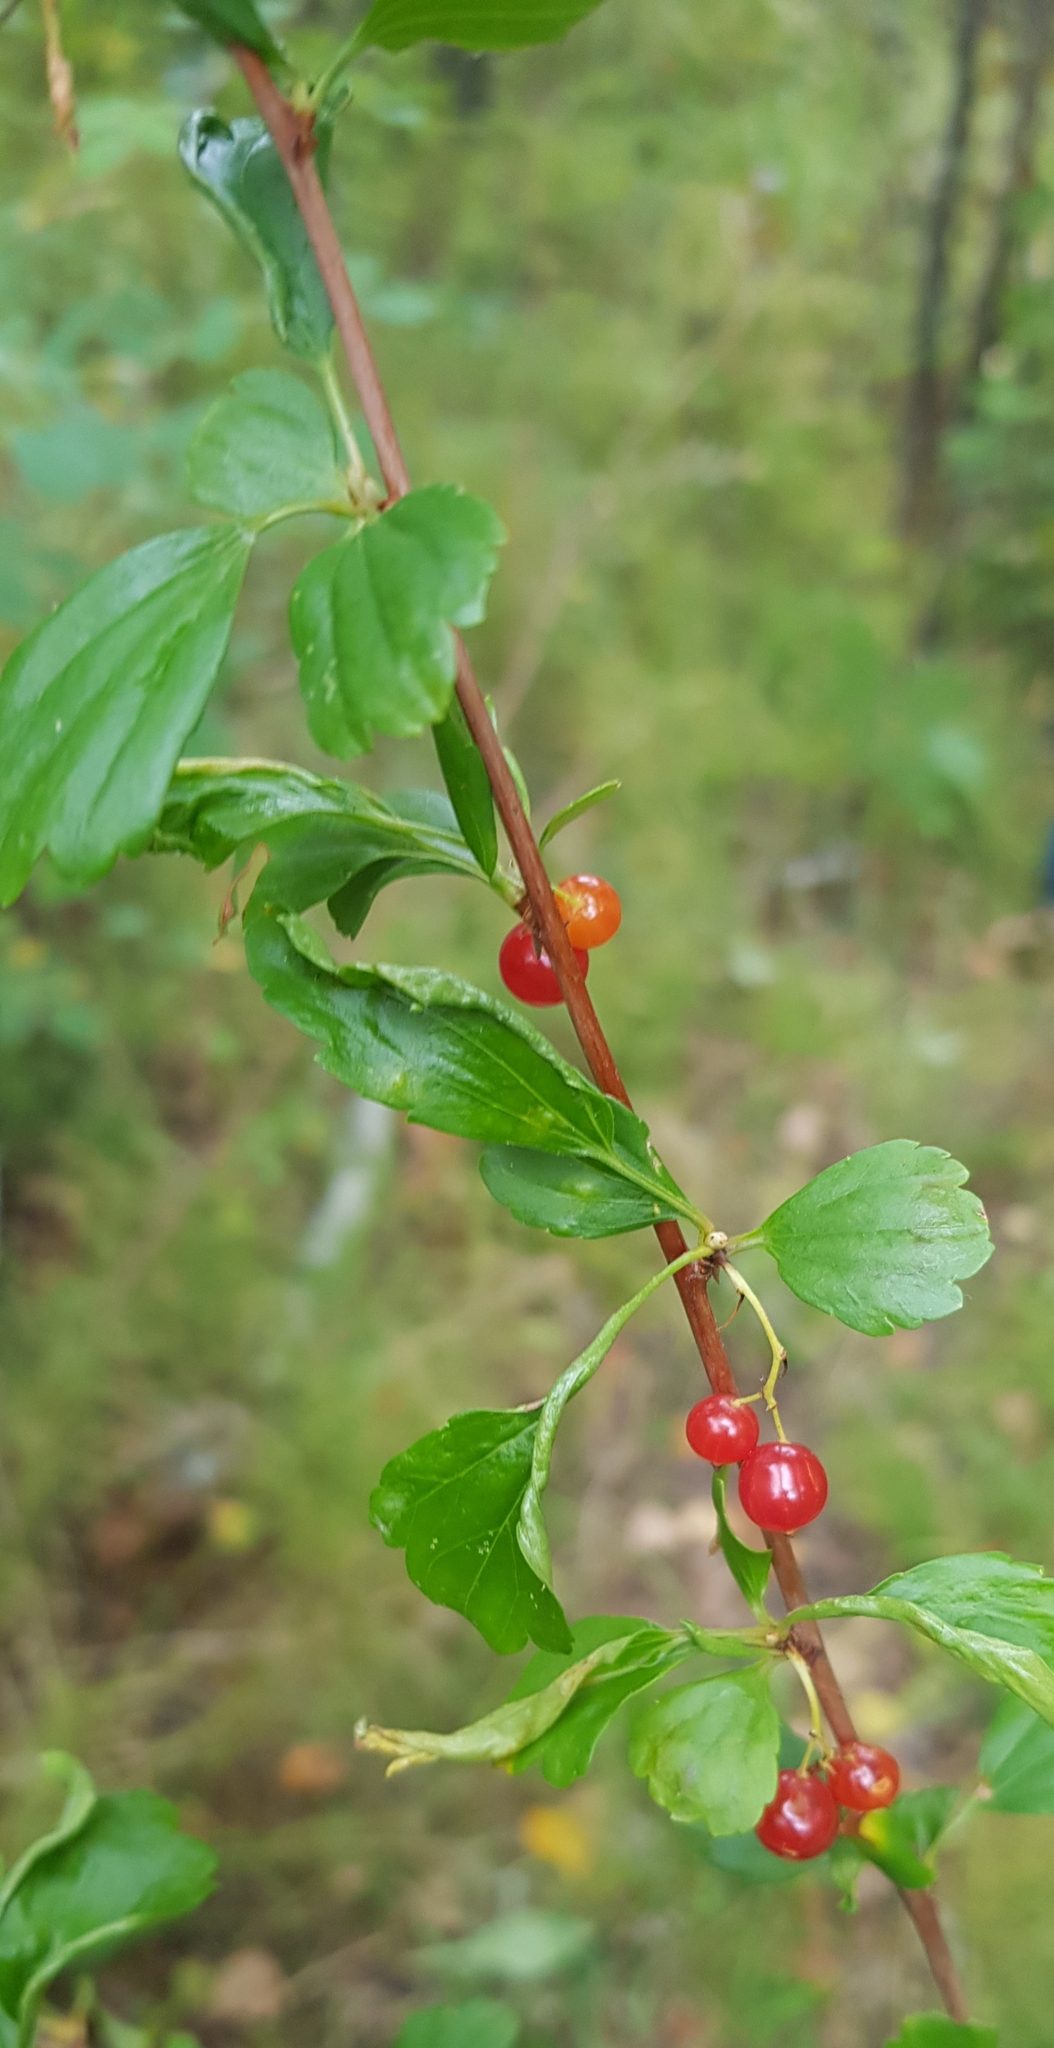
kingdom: Plantae
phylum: Tracheophyta
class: Magnoliopsida
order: Saxifragales
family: Grossulariaceae
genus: Ribes
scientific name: Ribes diacanthum
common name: Siberian currant
